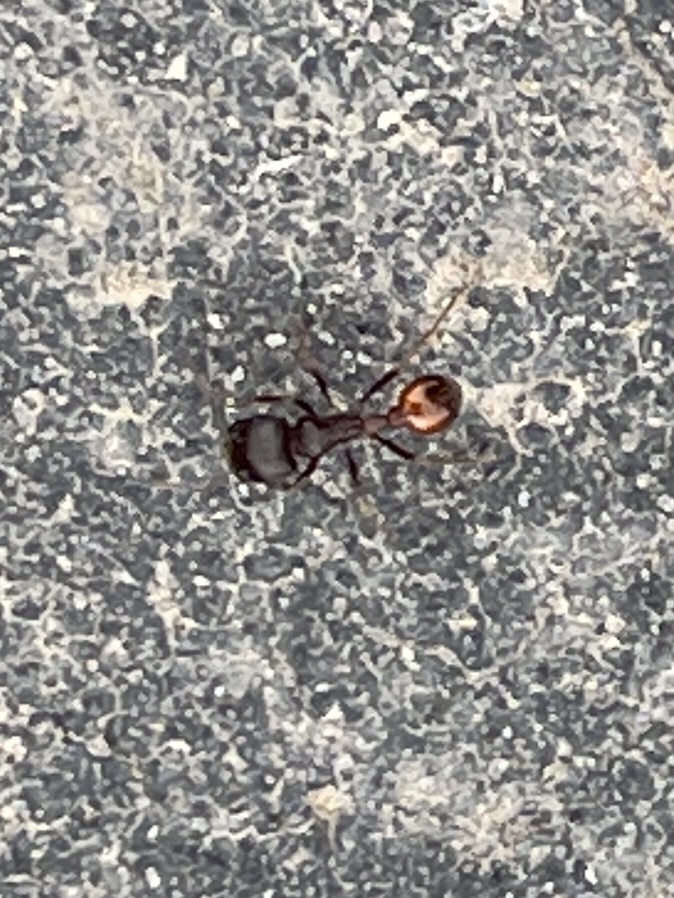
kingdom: Animalia
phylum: Arthropoda
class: Insecta
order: Hymenoptera
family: Formicidae
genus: Pogonomyrmex
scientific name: Pogonomyrmex rugosus
